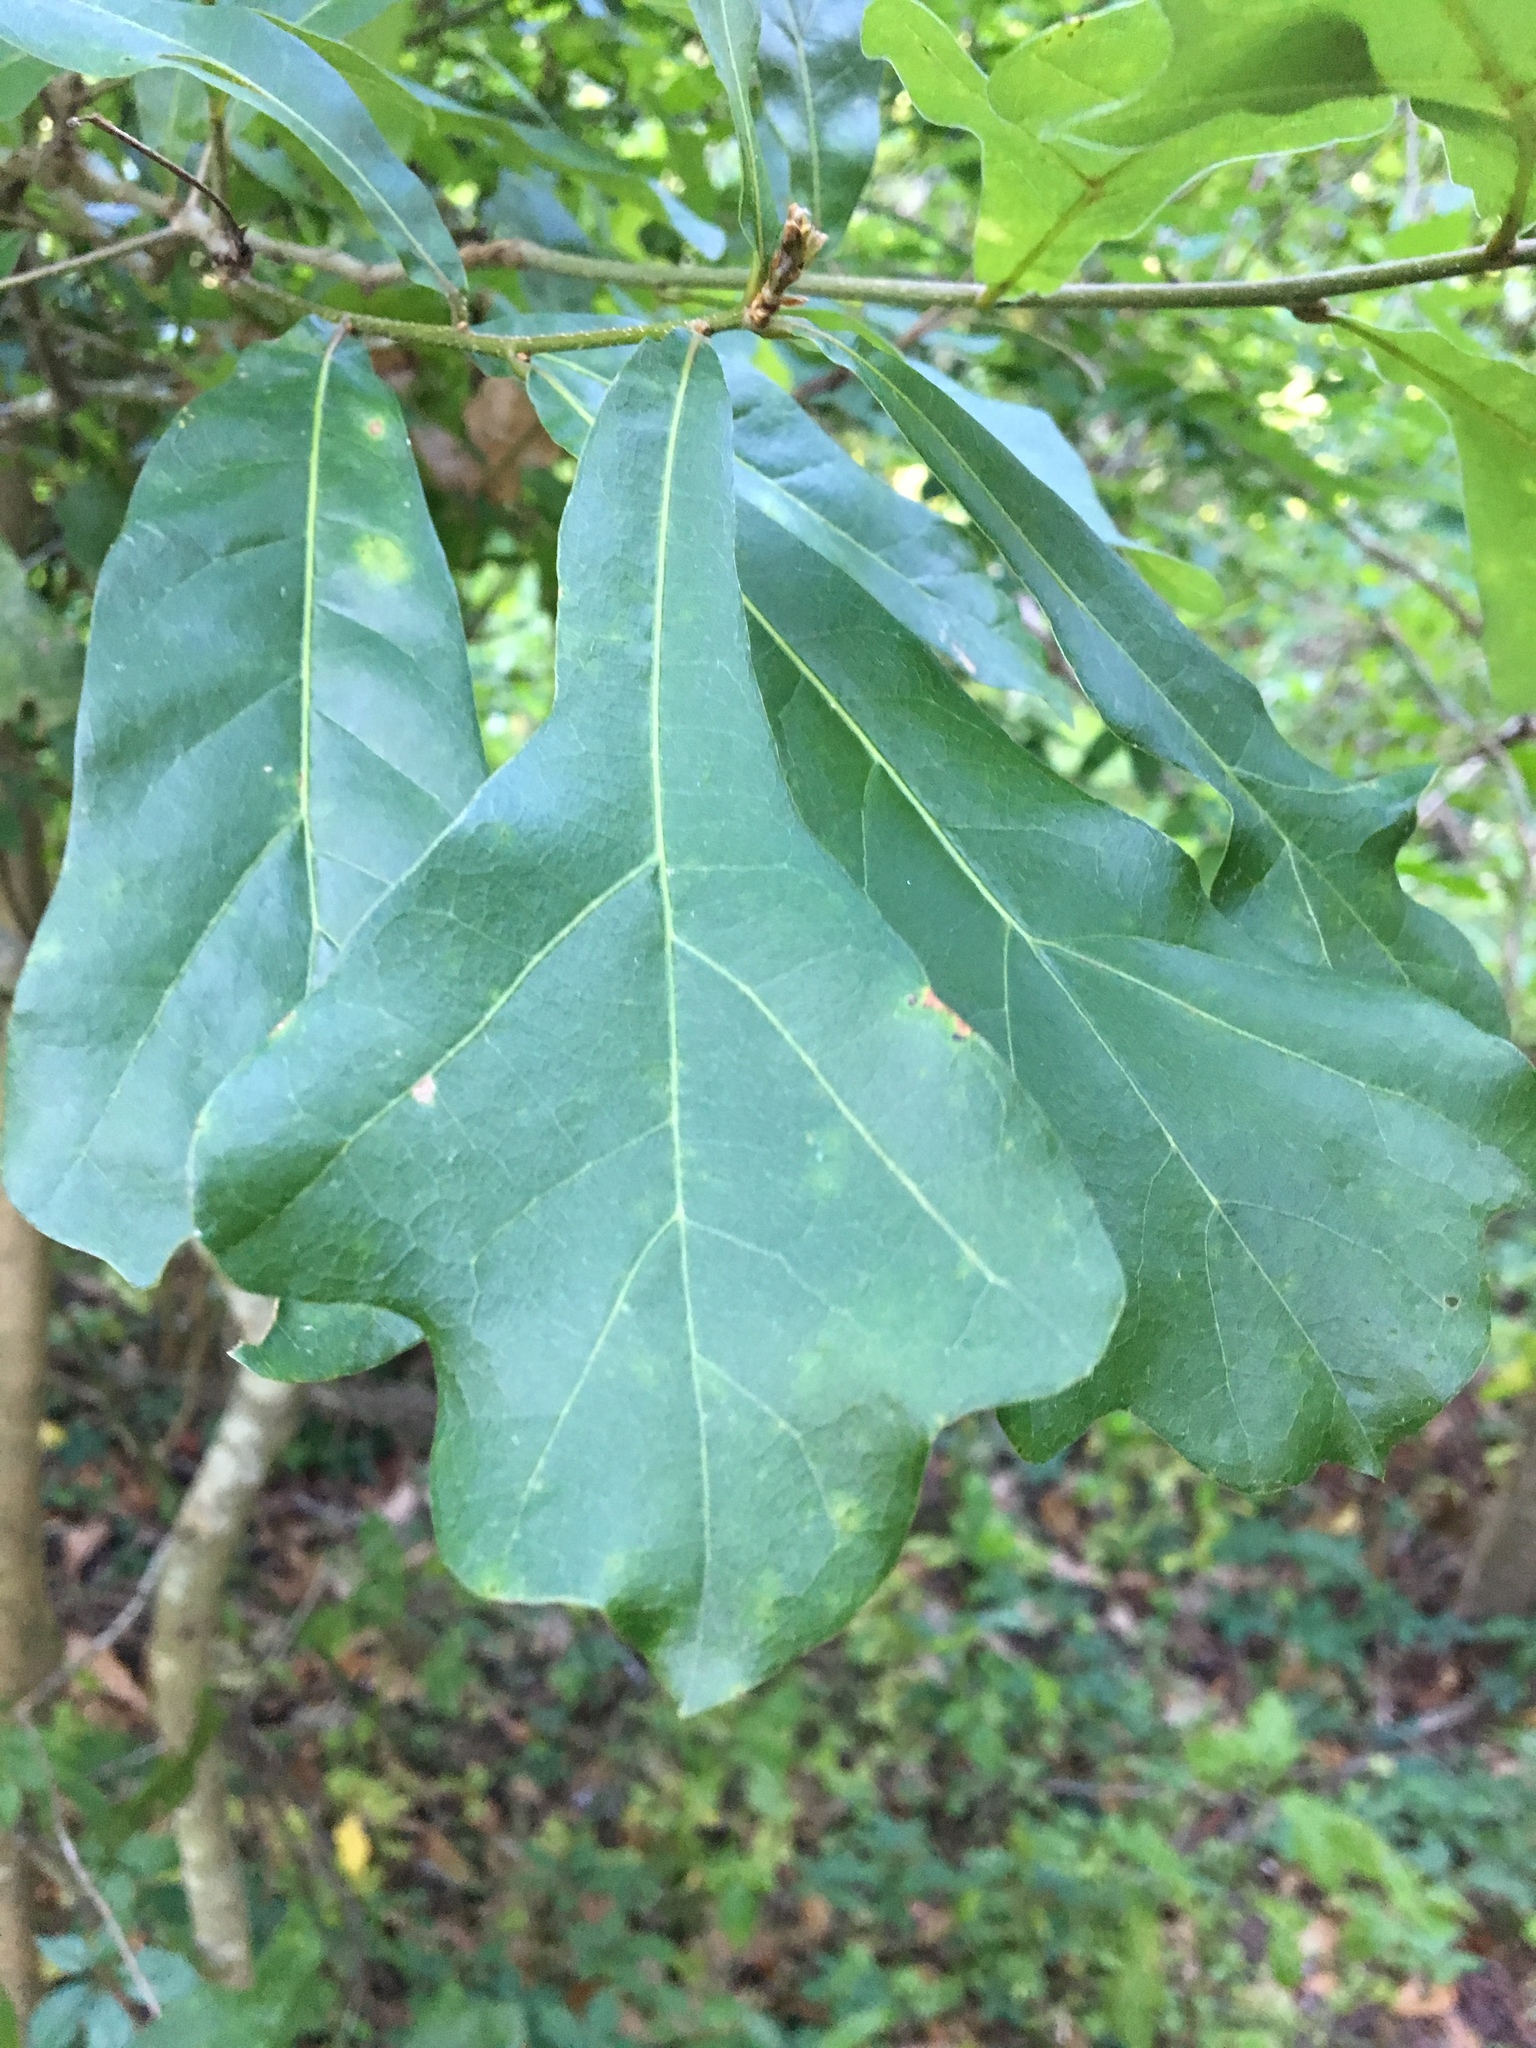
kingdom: Plantae
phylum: Tracheophyta
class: Magnoliopsida
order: Fagales
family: Fagaceae
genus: Quercus
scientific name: Quercus nigra
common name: Water oak
